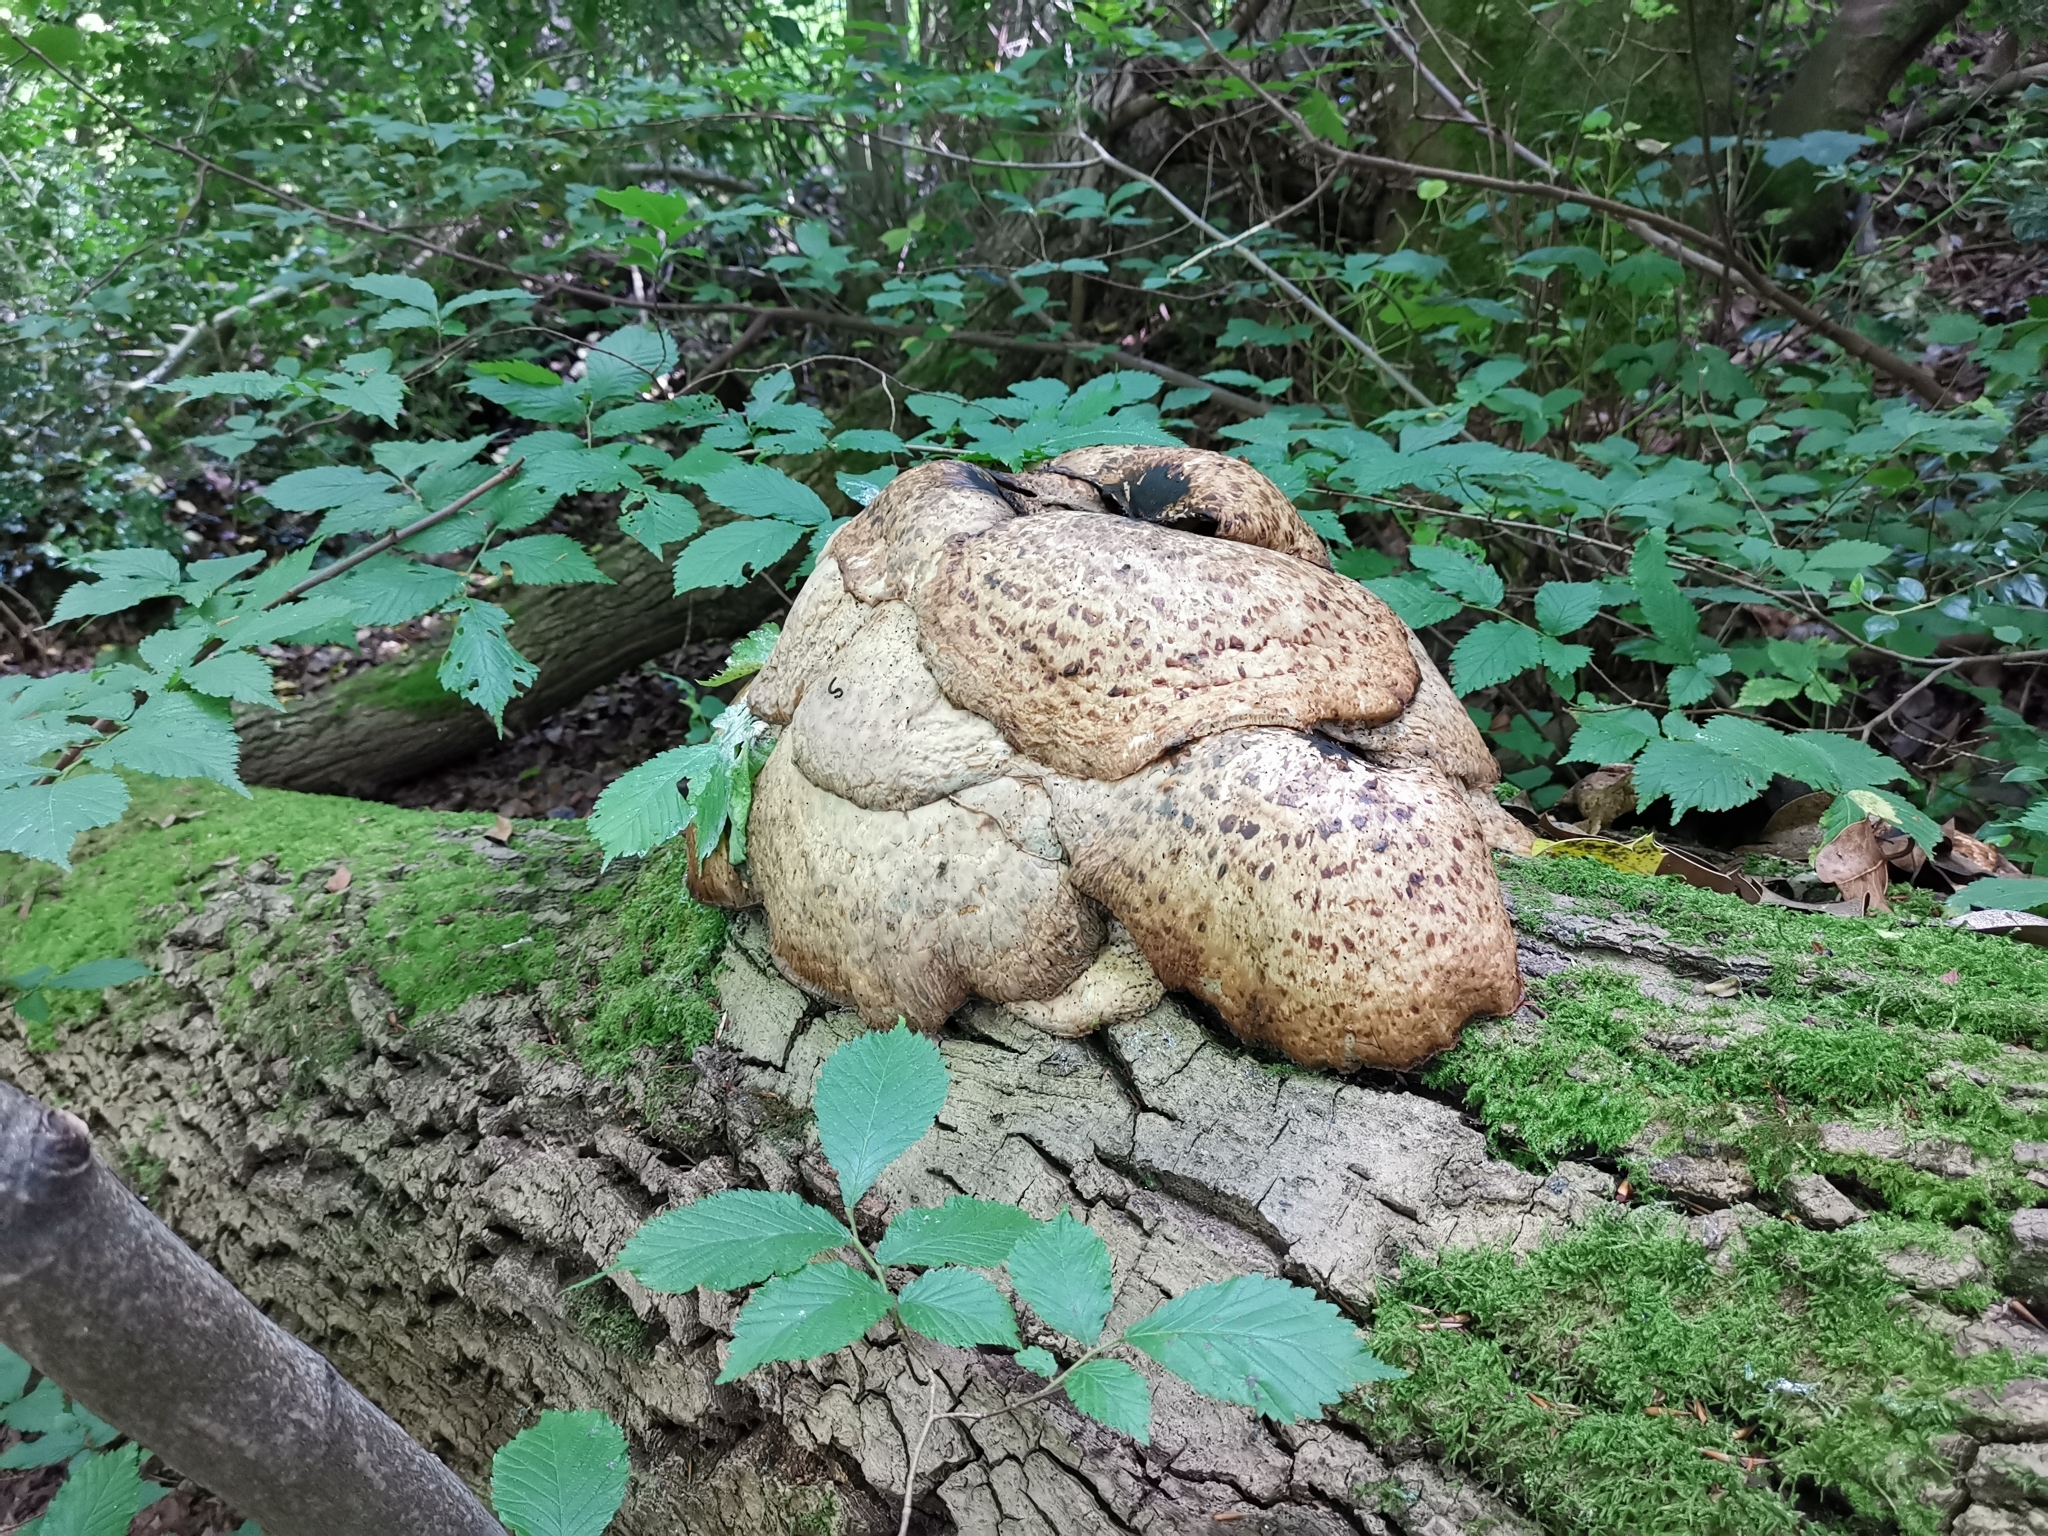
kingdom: Fungi
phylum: Basidiomycota
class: Agaricomycetes
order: Polyporales
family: Polyporaceae
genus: Cerioporus
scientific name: Cerioporus squamosus
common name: Dryad's saddle
